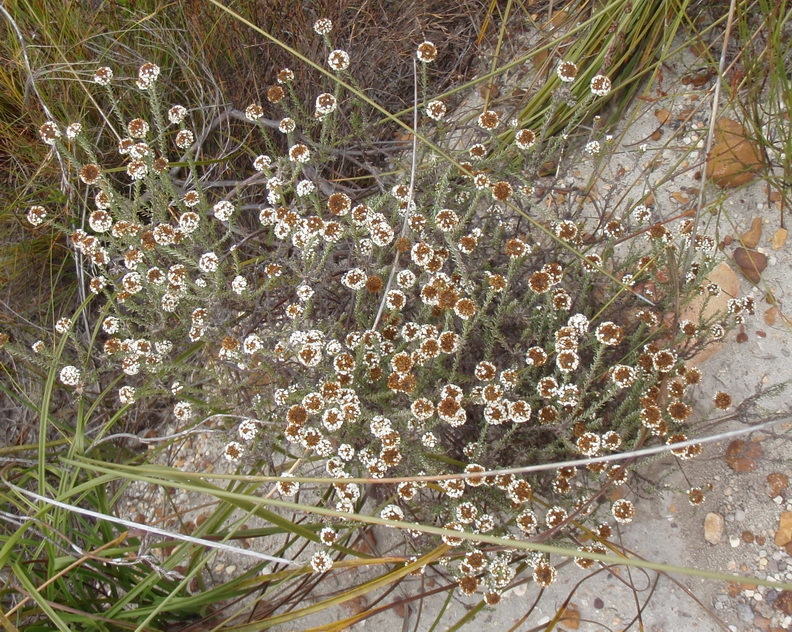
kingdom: Plantae
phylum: Tracheophyta
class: Magnoliopsida
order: Asterales
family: Asteraceae
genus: Disparago
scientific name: Disparago anomala
